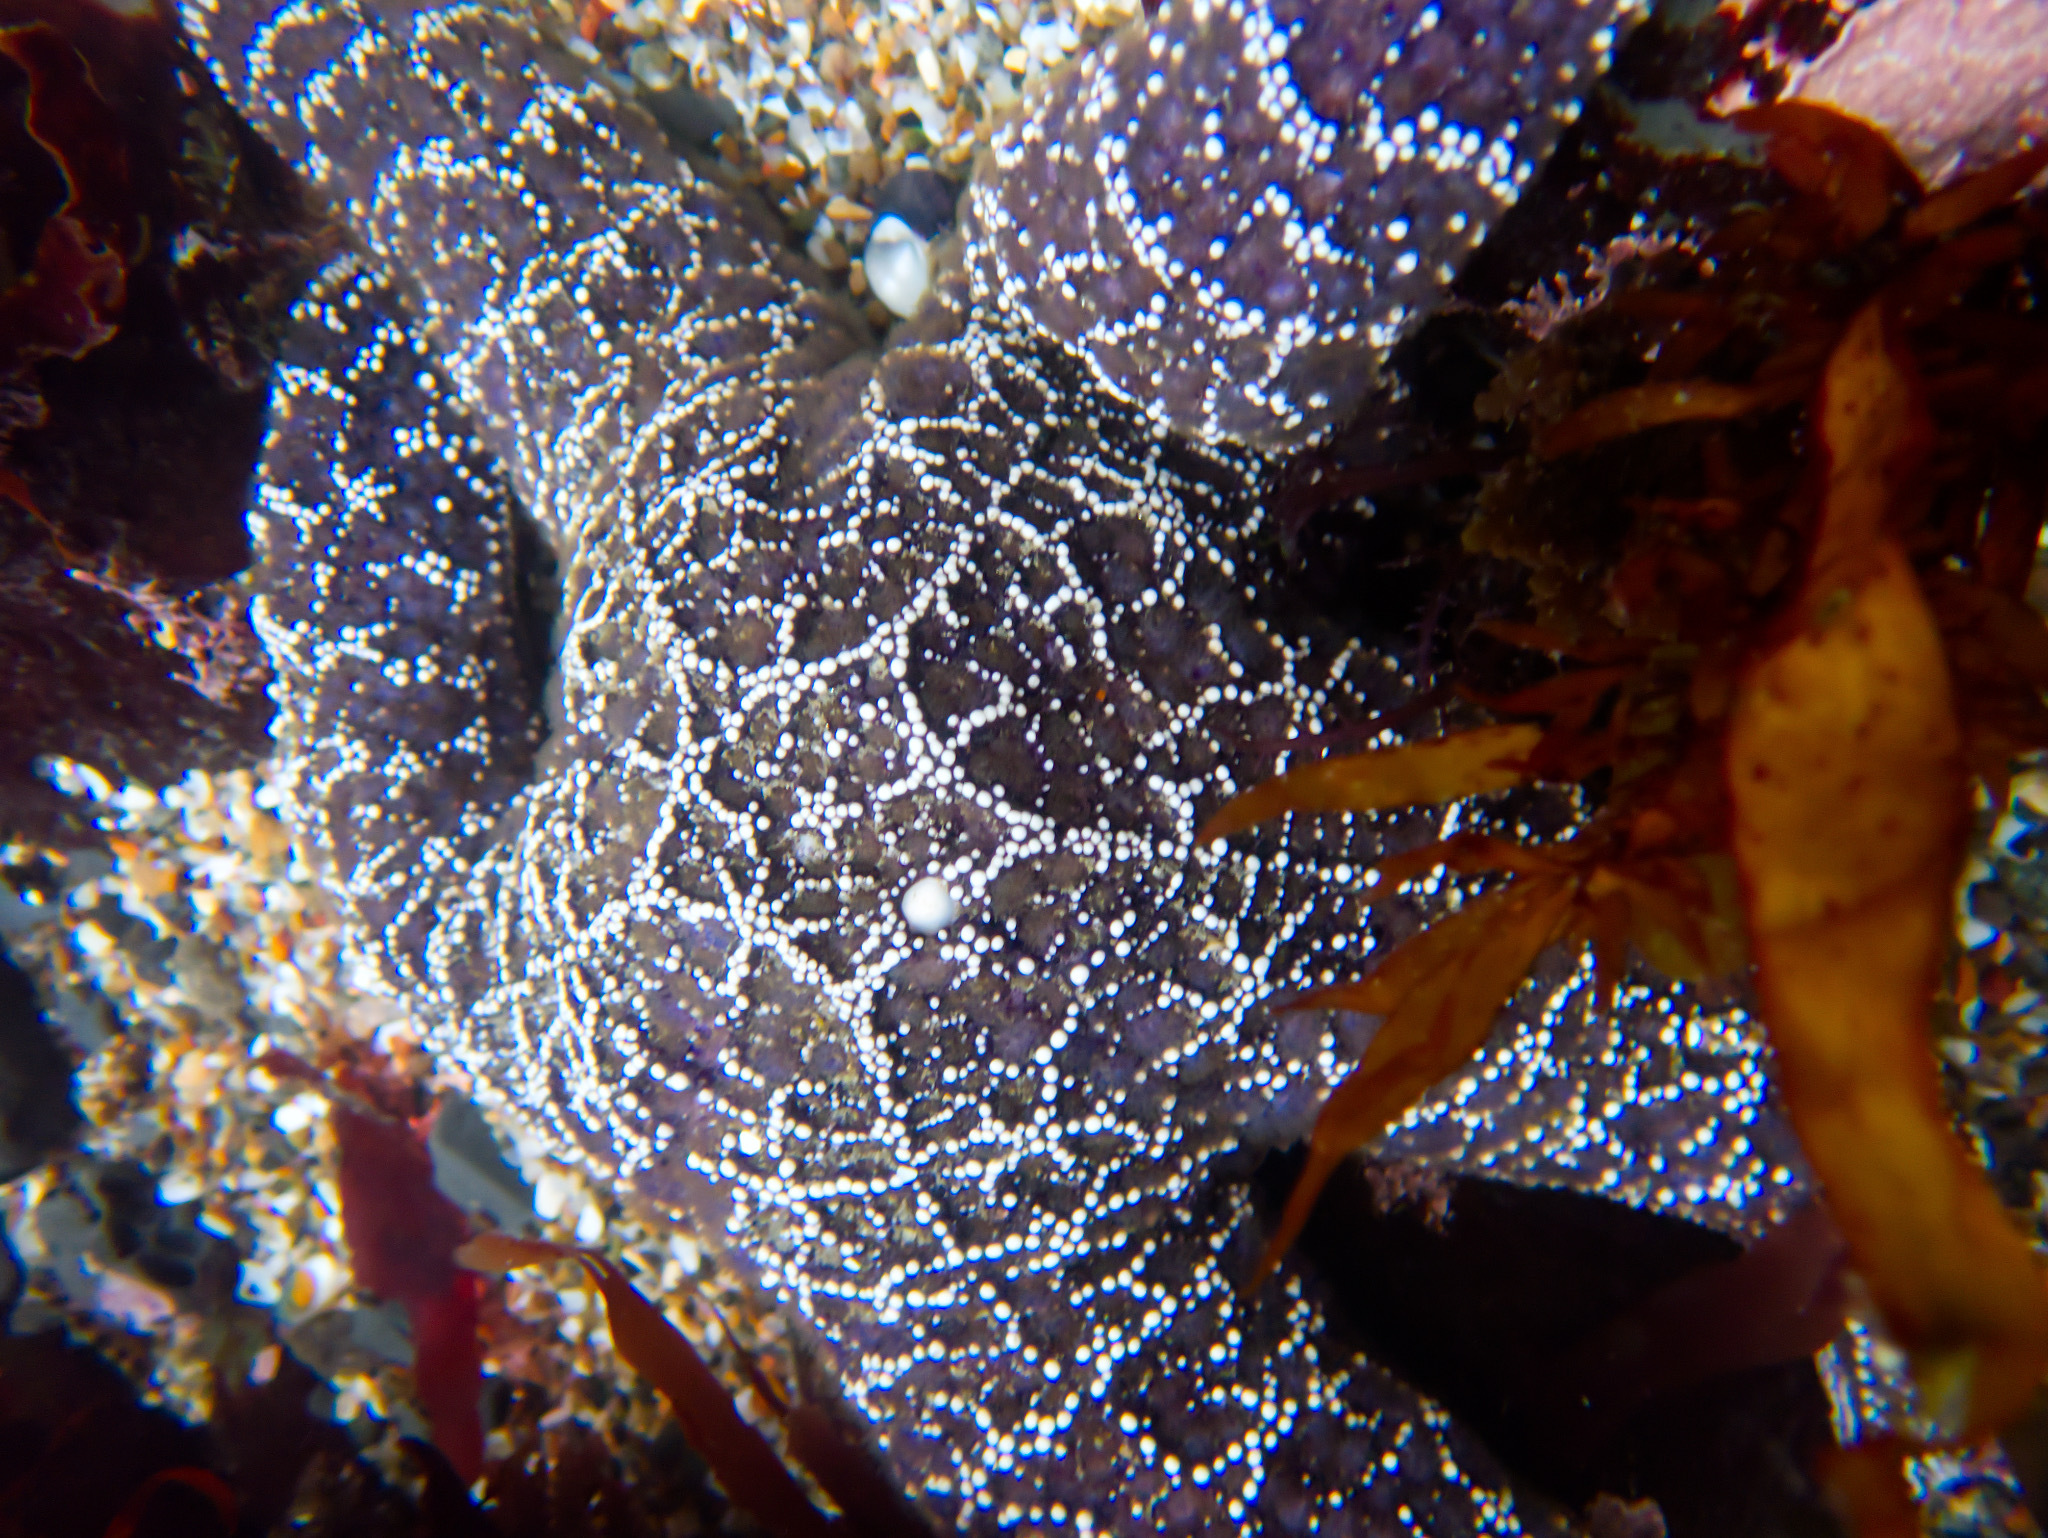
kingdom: Animalia
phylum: Echinodermata
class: Asteroidea
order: Forcipulatida
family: Asteriidae
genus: Pisaster
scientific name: Pisaster ochraceus
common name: Ochre stars
